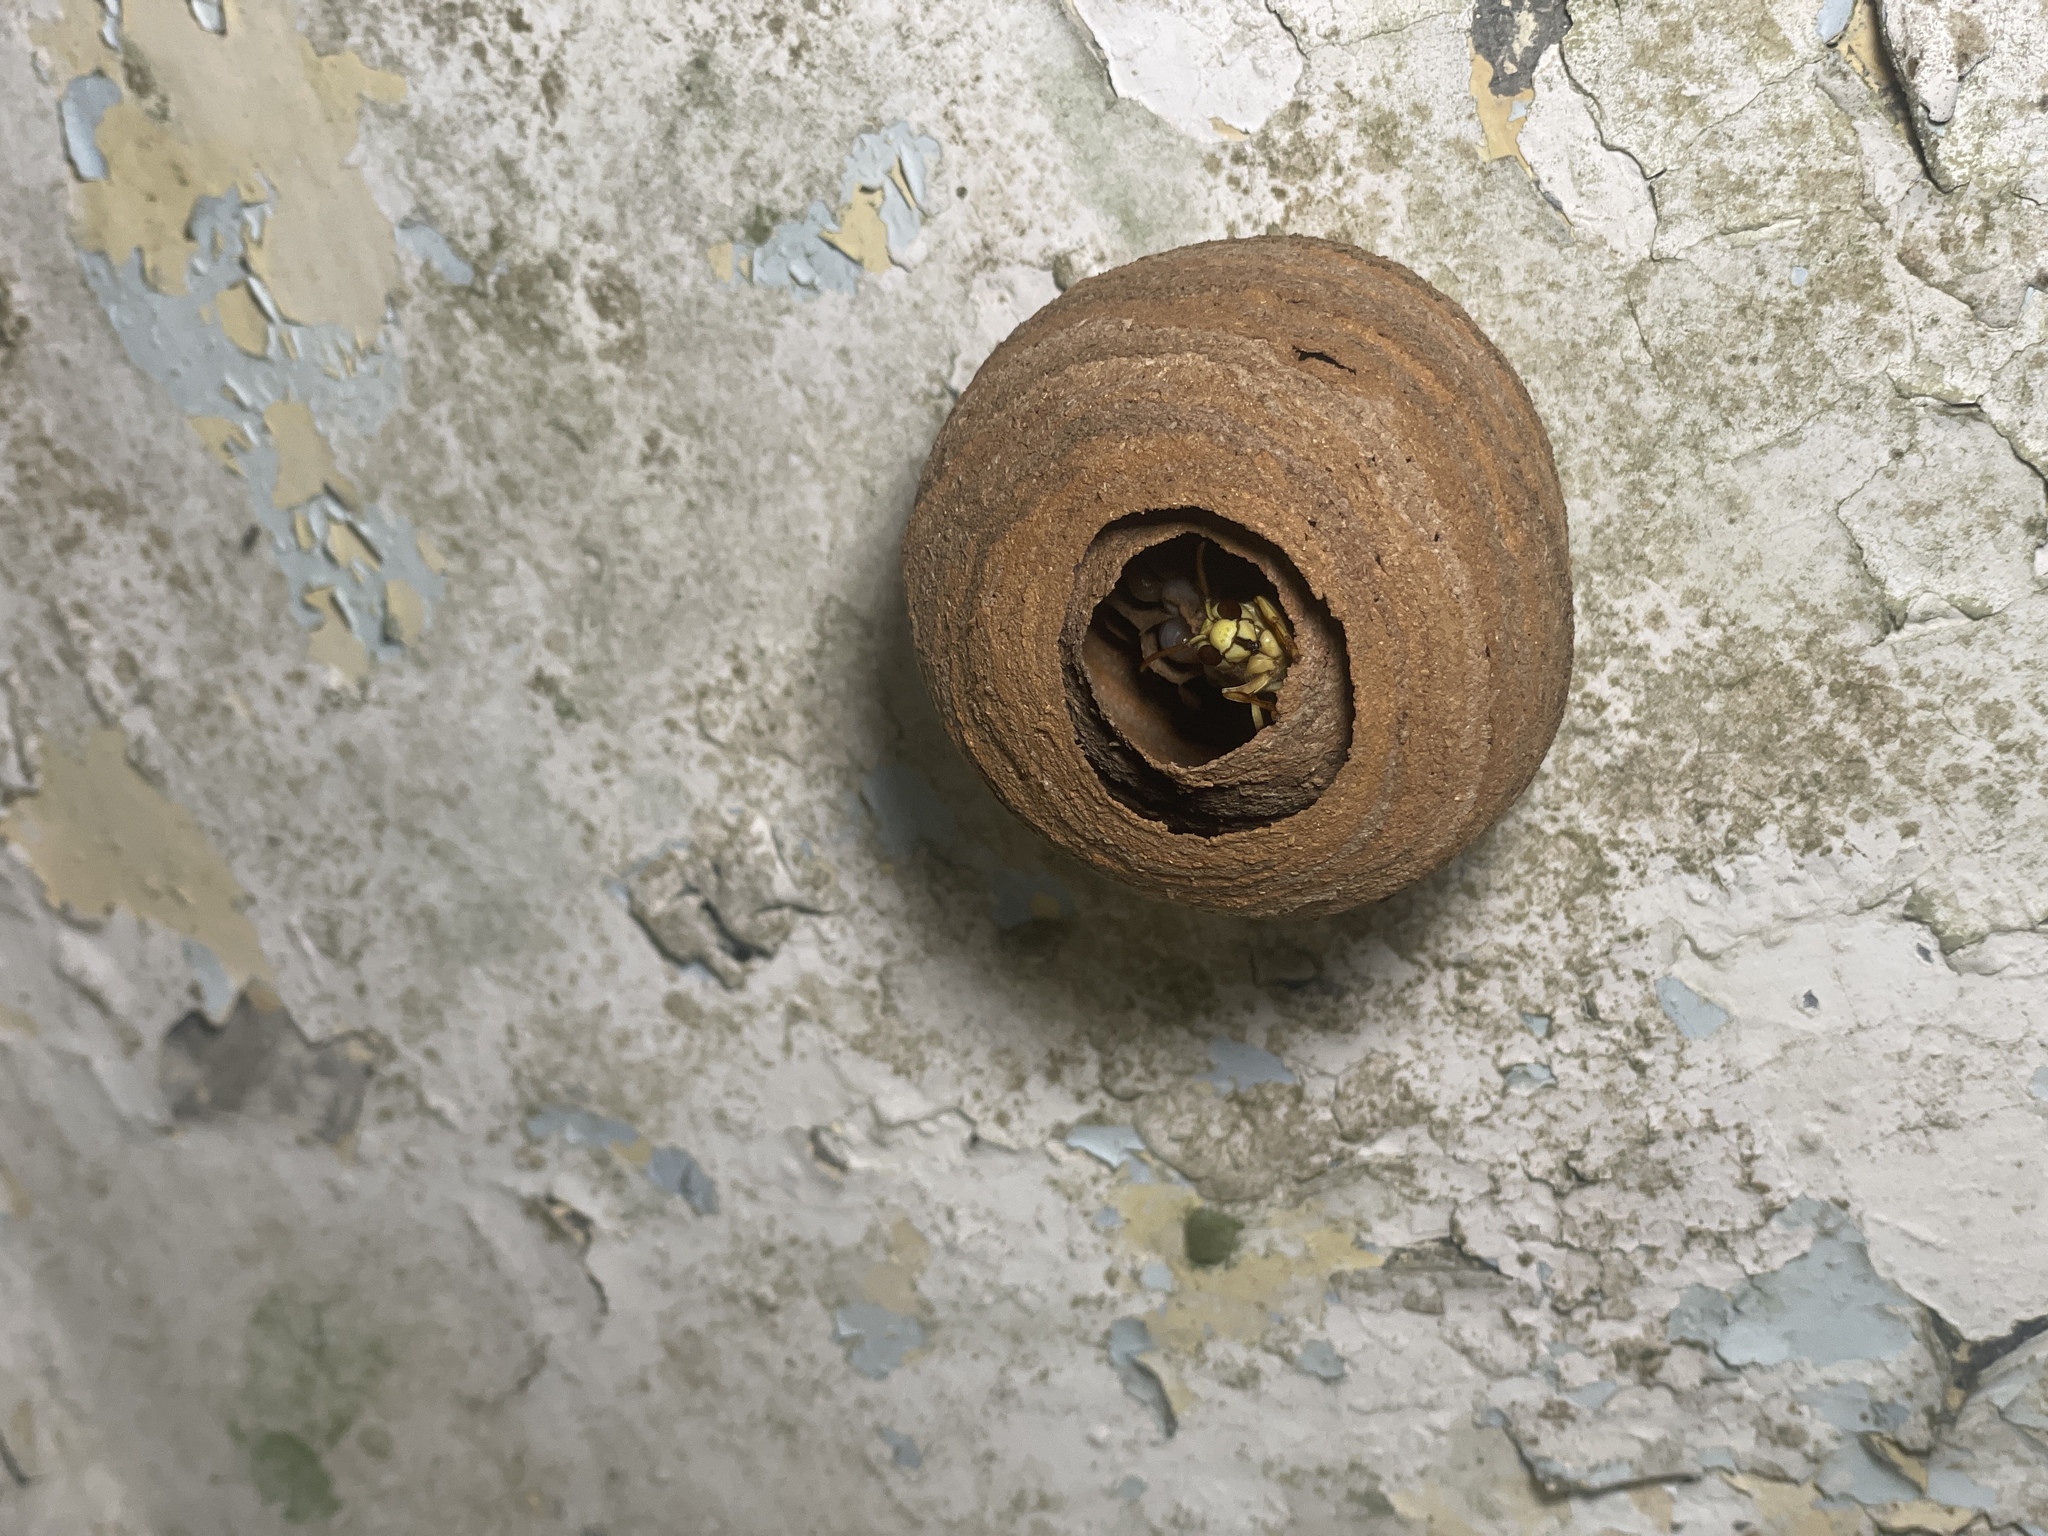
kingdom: Animalia
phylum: Arthropoda
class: Insecta
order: Hymenoptera
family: Vespidae
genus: Vespa
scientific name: Vespa bicolor
